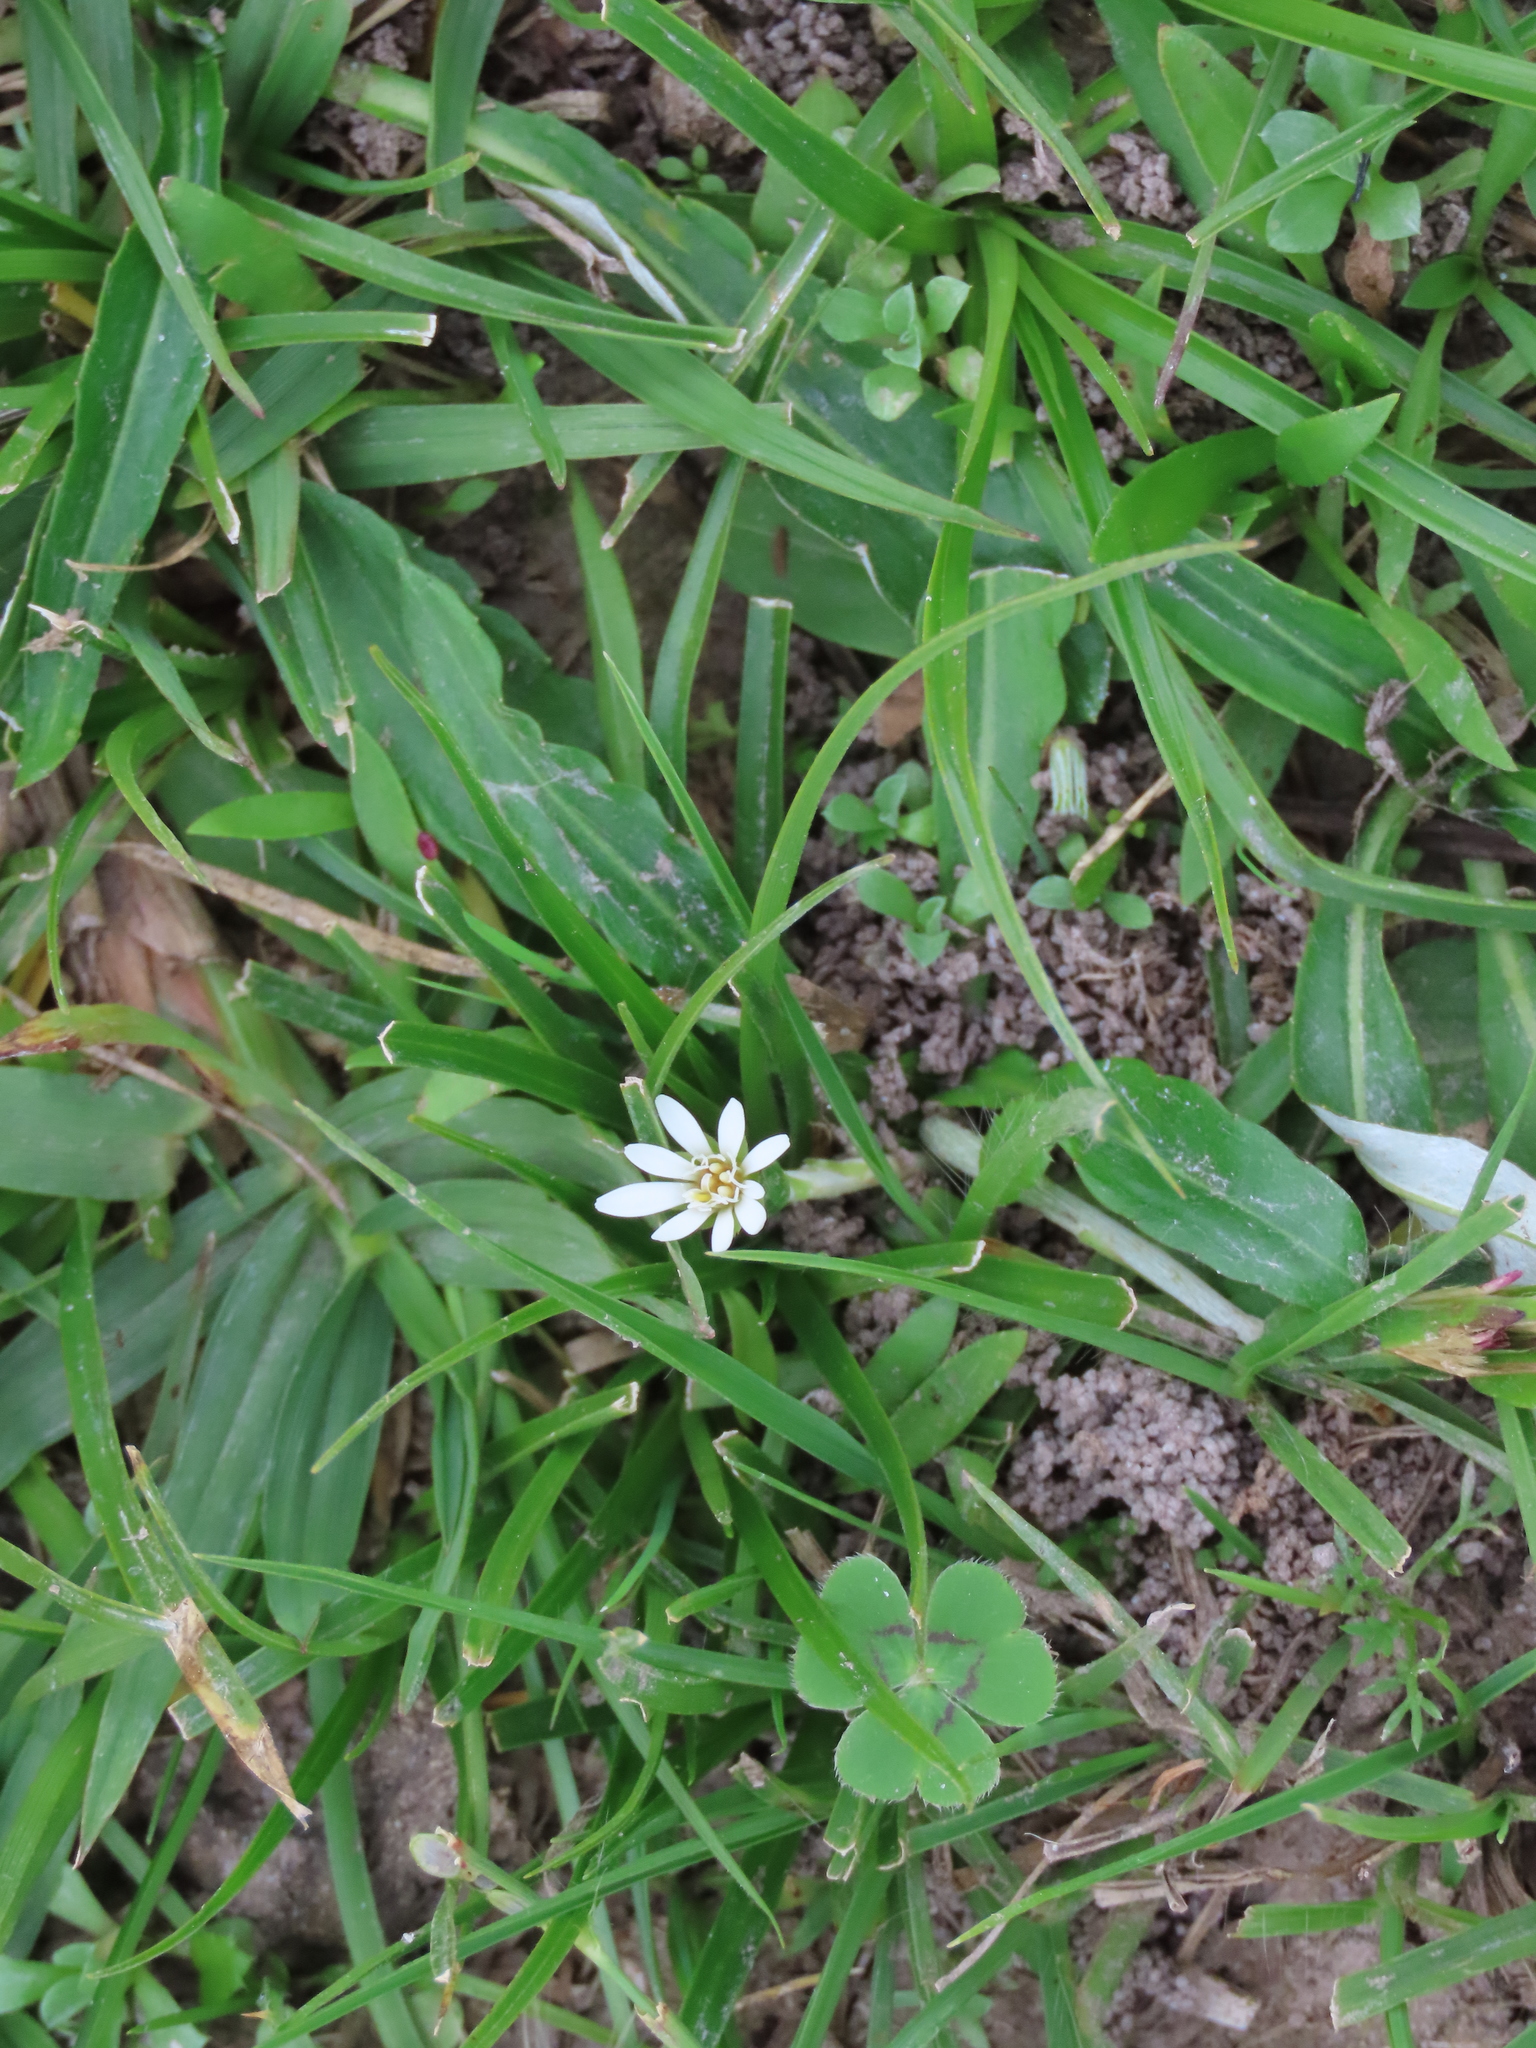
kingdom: Plantae
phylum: Tracheophyta
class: Magnoliopsida
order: Asterales
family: Asteraceae
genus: Chaptalia
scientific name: Chaptalia piloselloides
